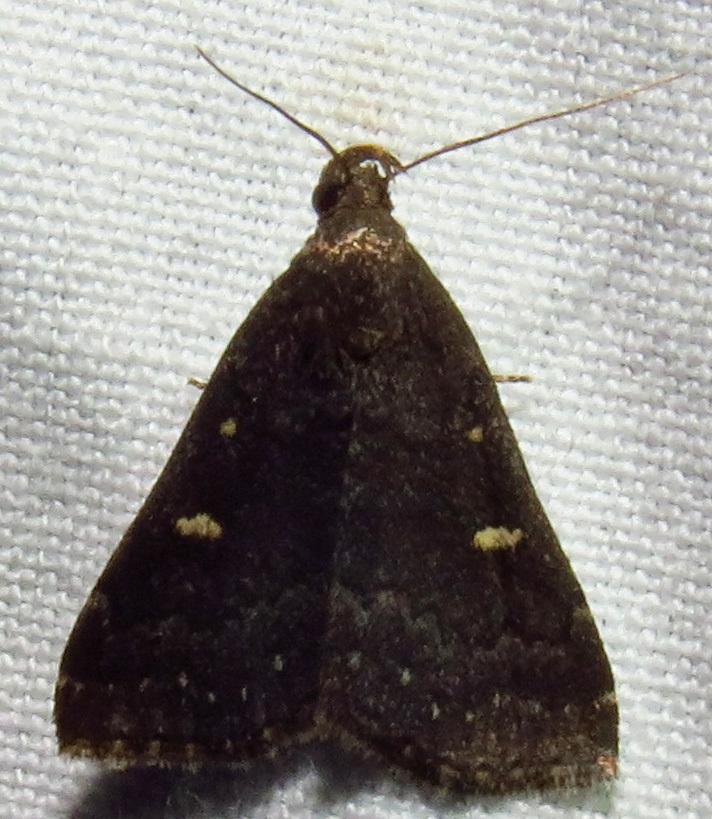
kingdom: Animalia
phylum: Arthropoda
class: Insecta
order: Lepidoptera
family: Erebidae
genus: Tetanolita
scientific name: Tetanolita mynesalis
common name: Smoky tetanolita moth
